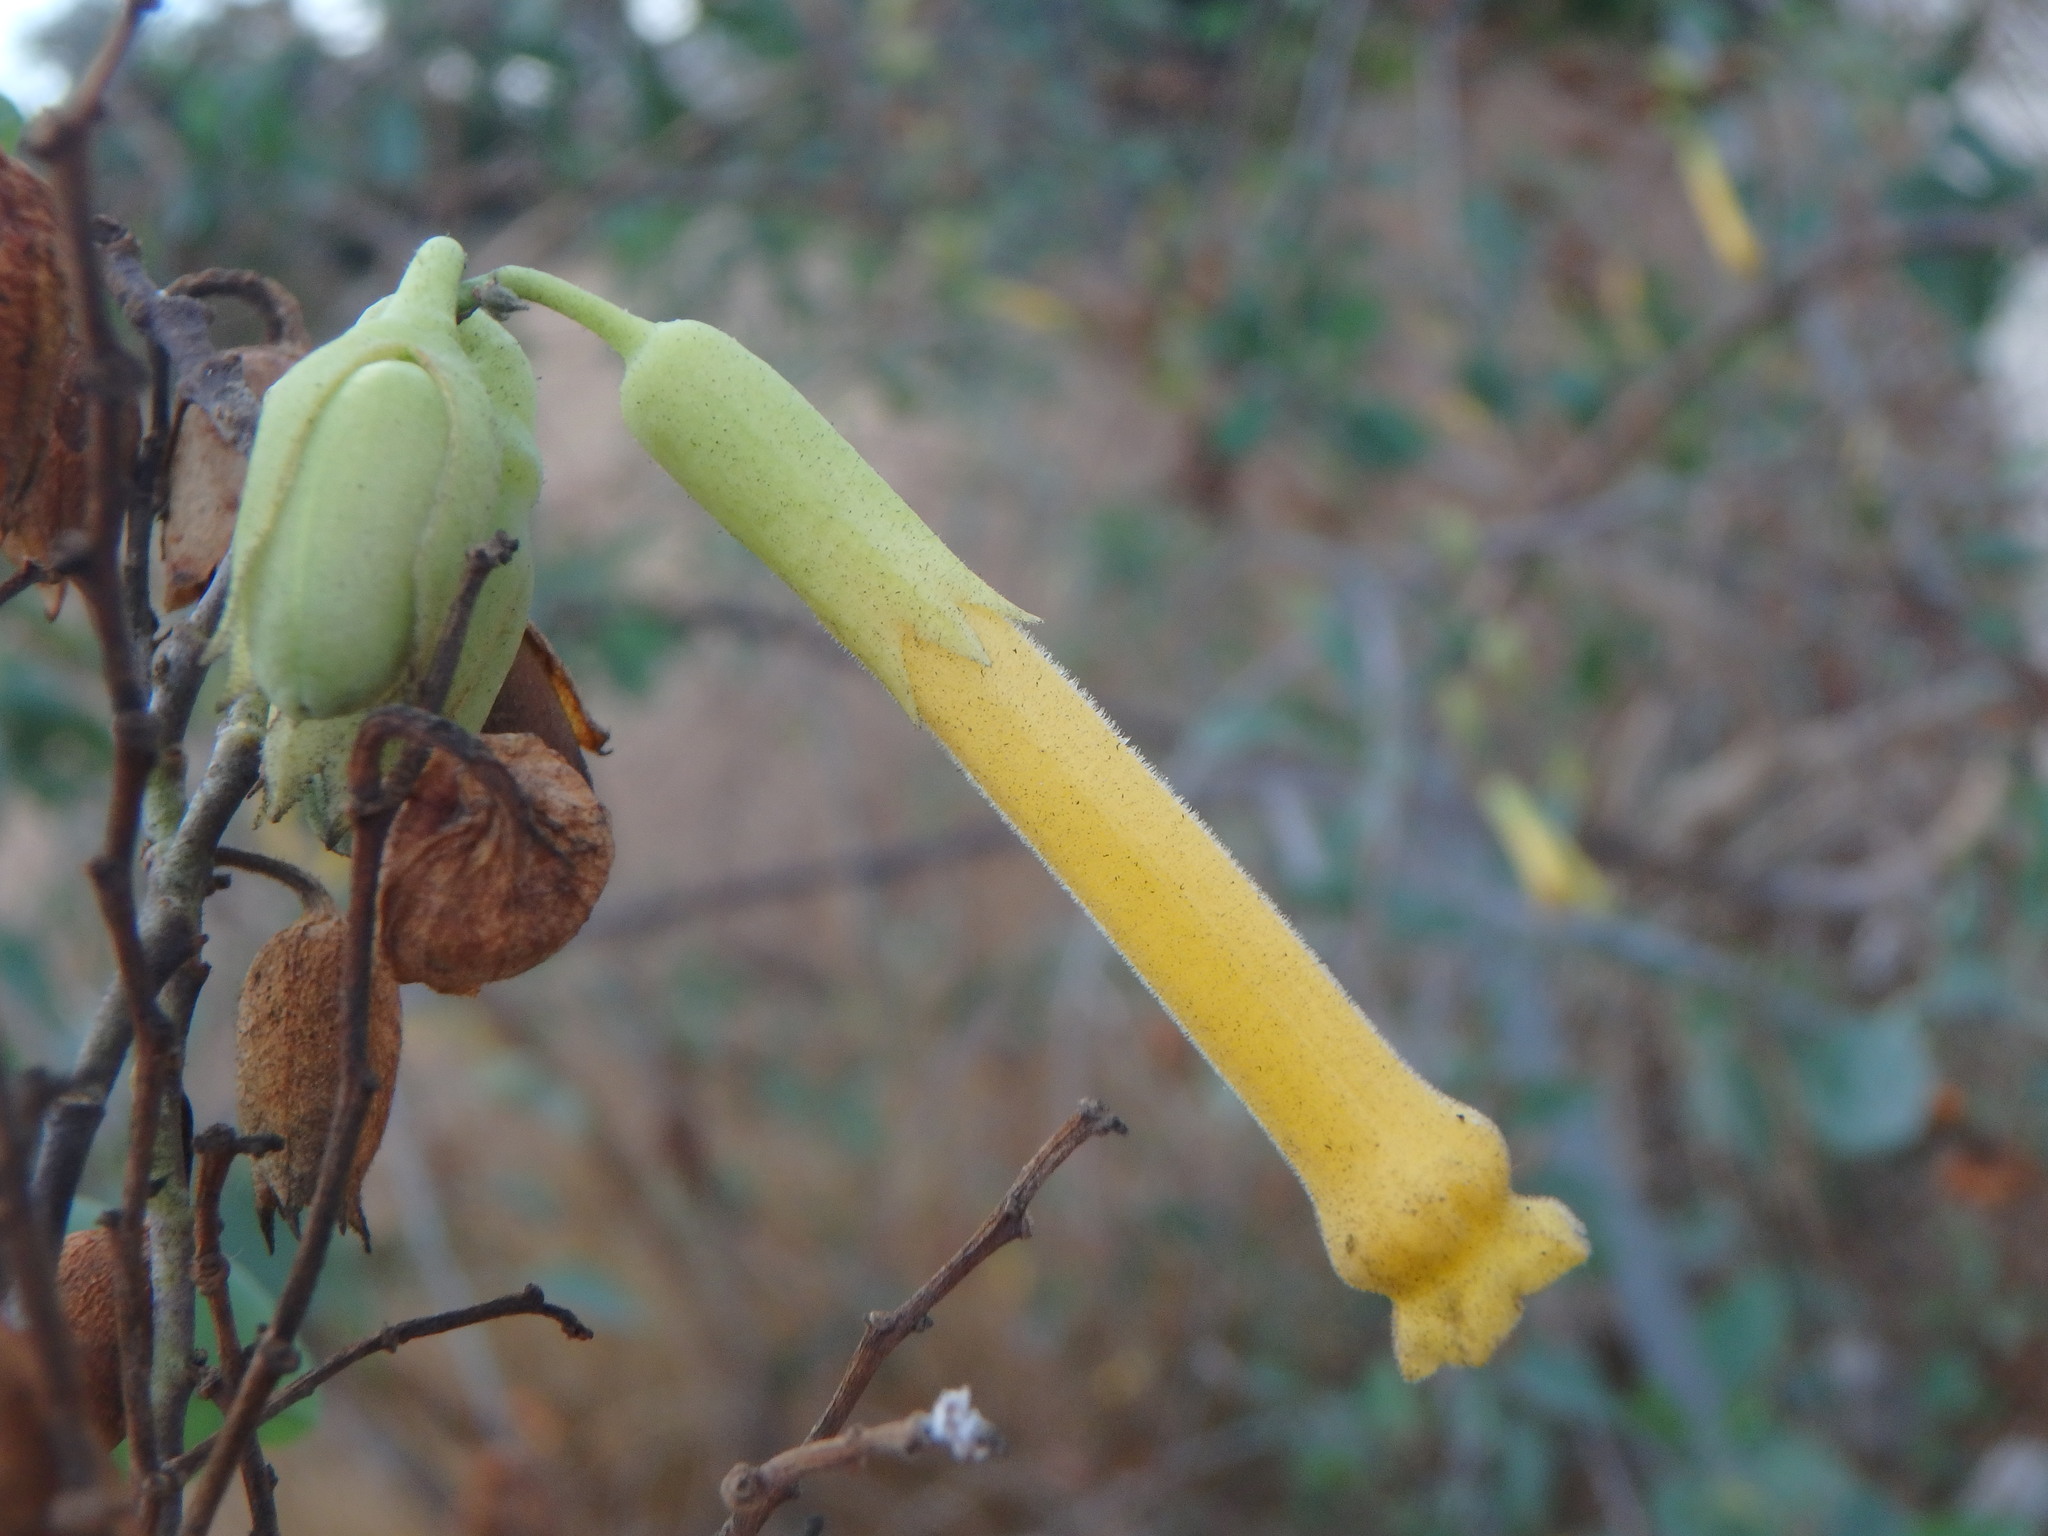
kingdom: Plantae
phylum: Tracheophyta
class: Magnoliopsida
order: Solanales
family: Solanaceae
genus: Nicotiana
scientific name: Nicotiana glauca
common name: Tree tobacco
